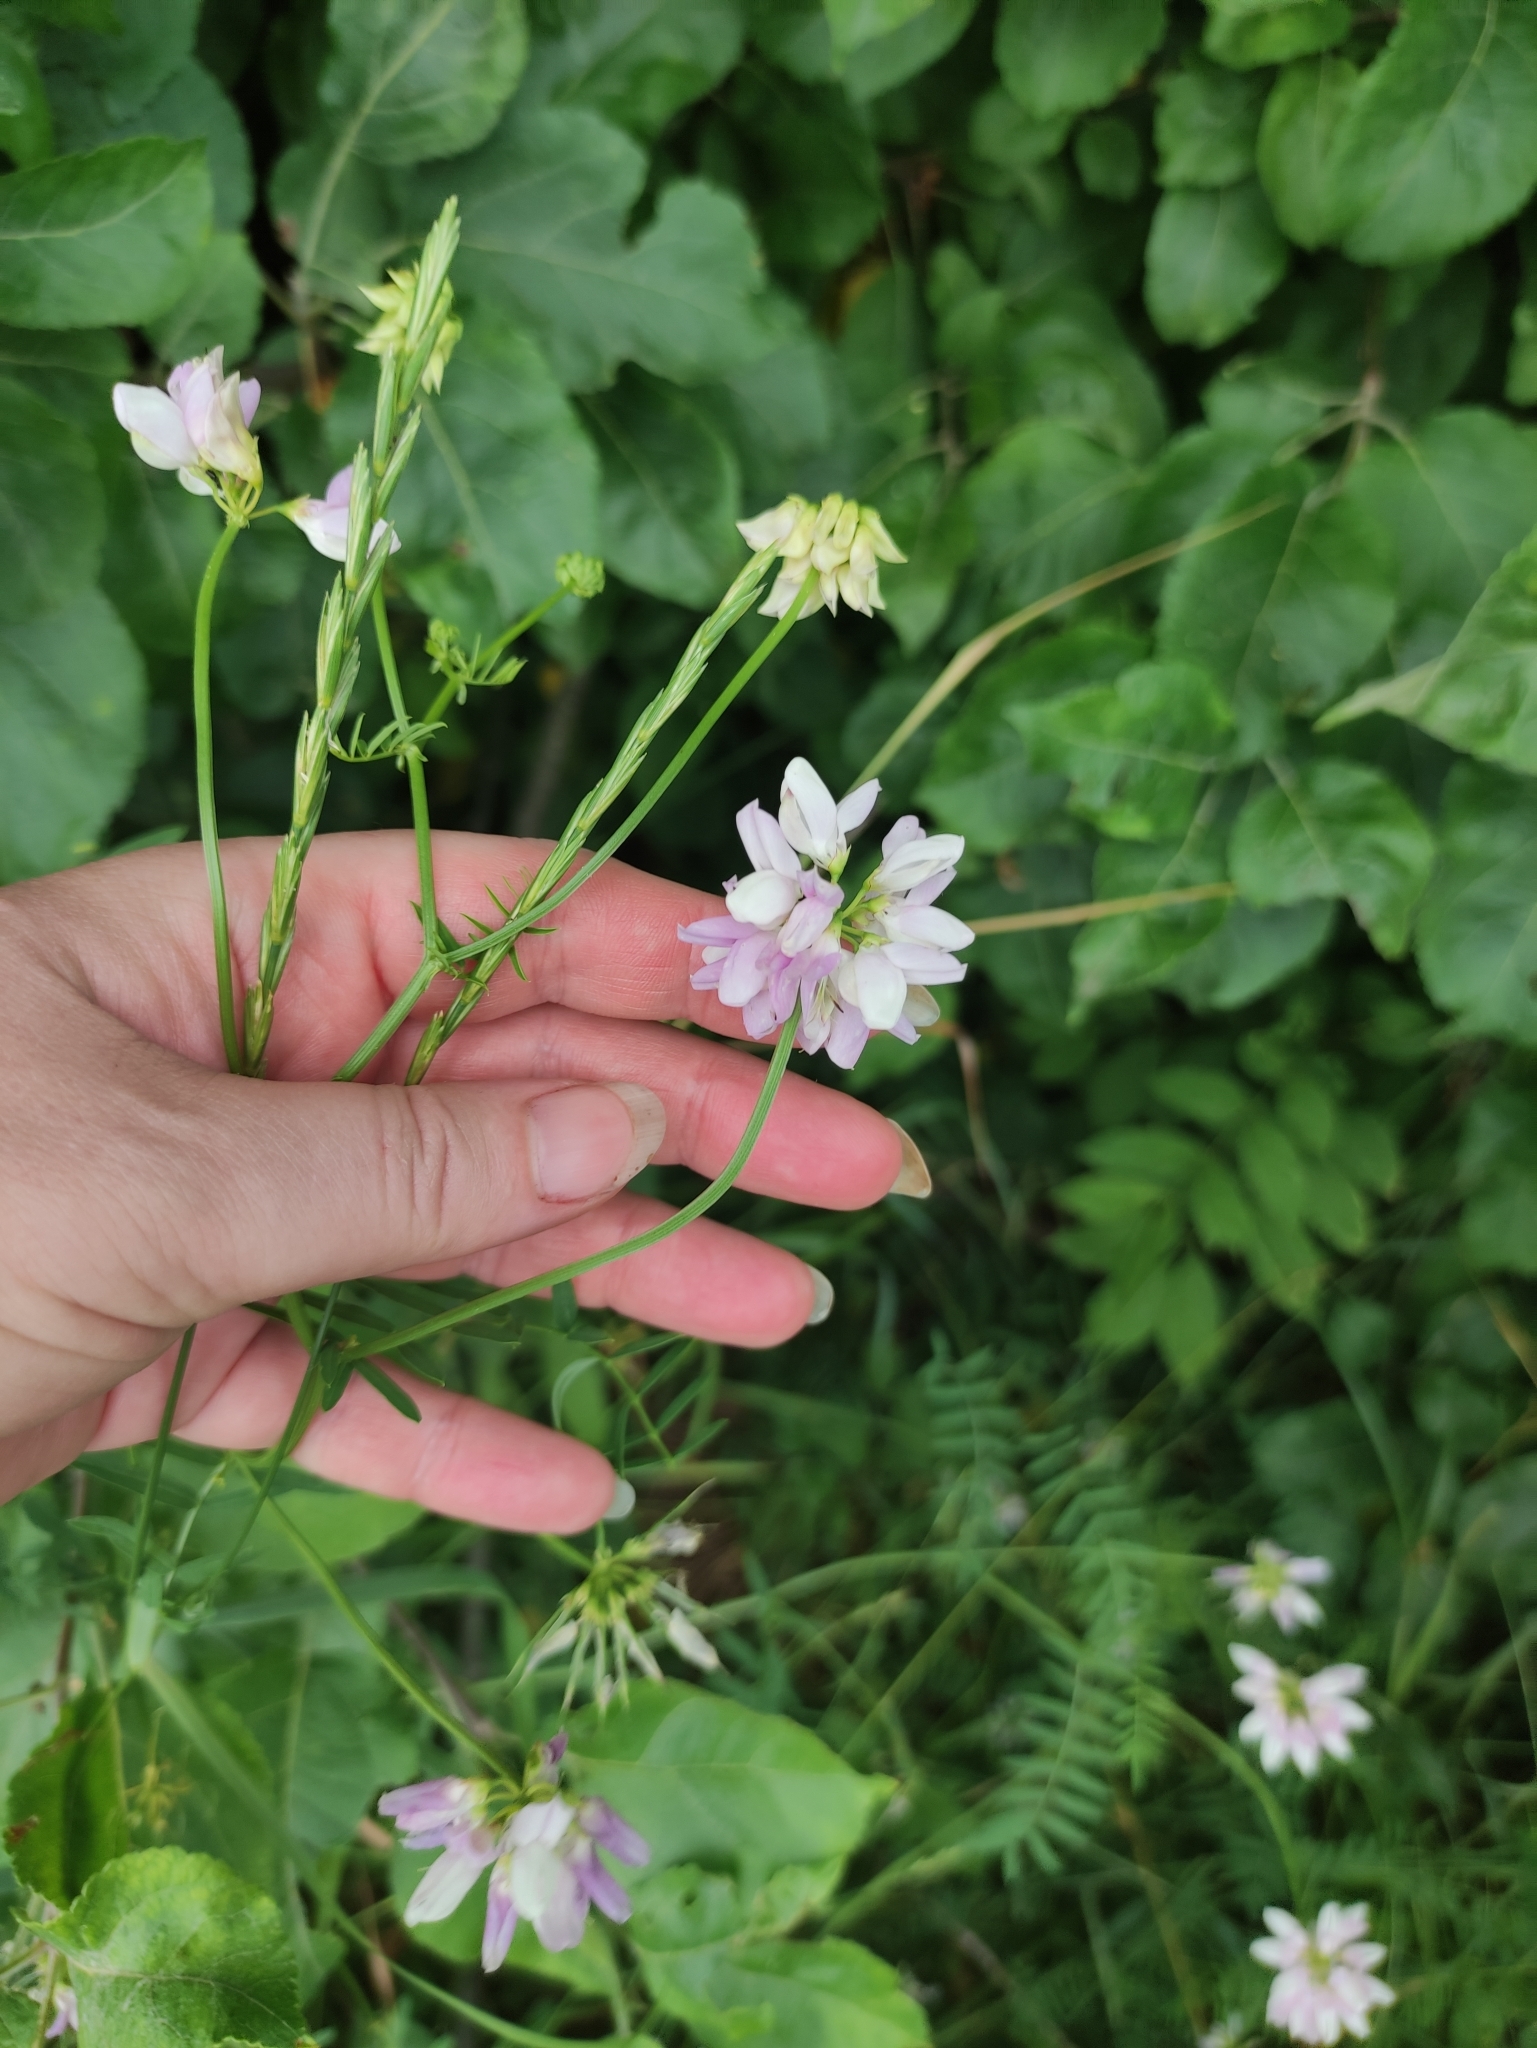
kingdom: Plantae
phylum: Tracheophyta
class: Magnoliopsida
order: Fabales
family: Fabaceae
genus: Coronilla
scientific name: Coronilla varia
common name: Crownvetch
